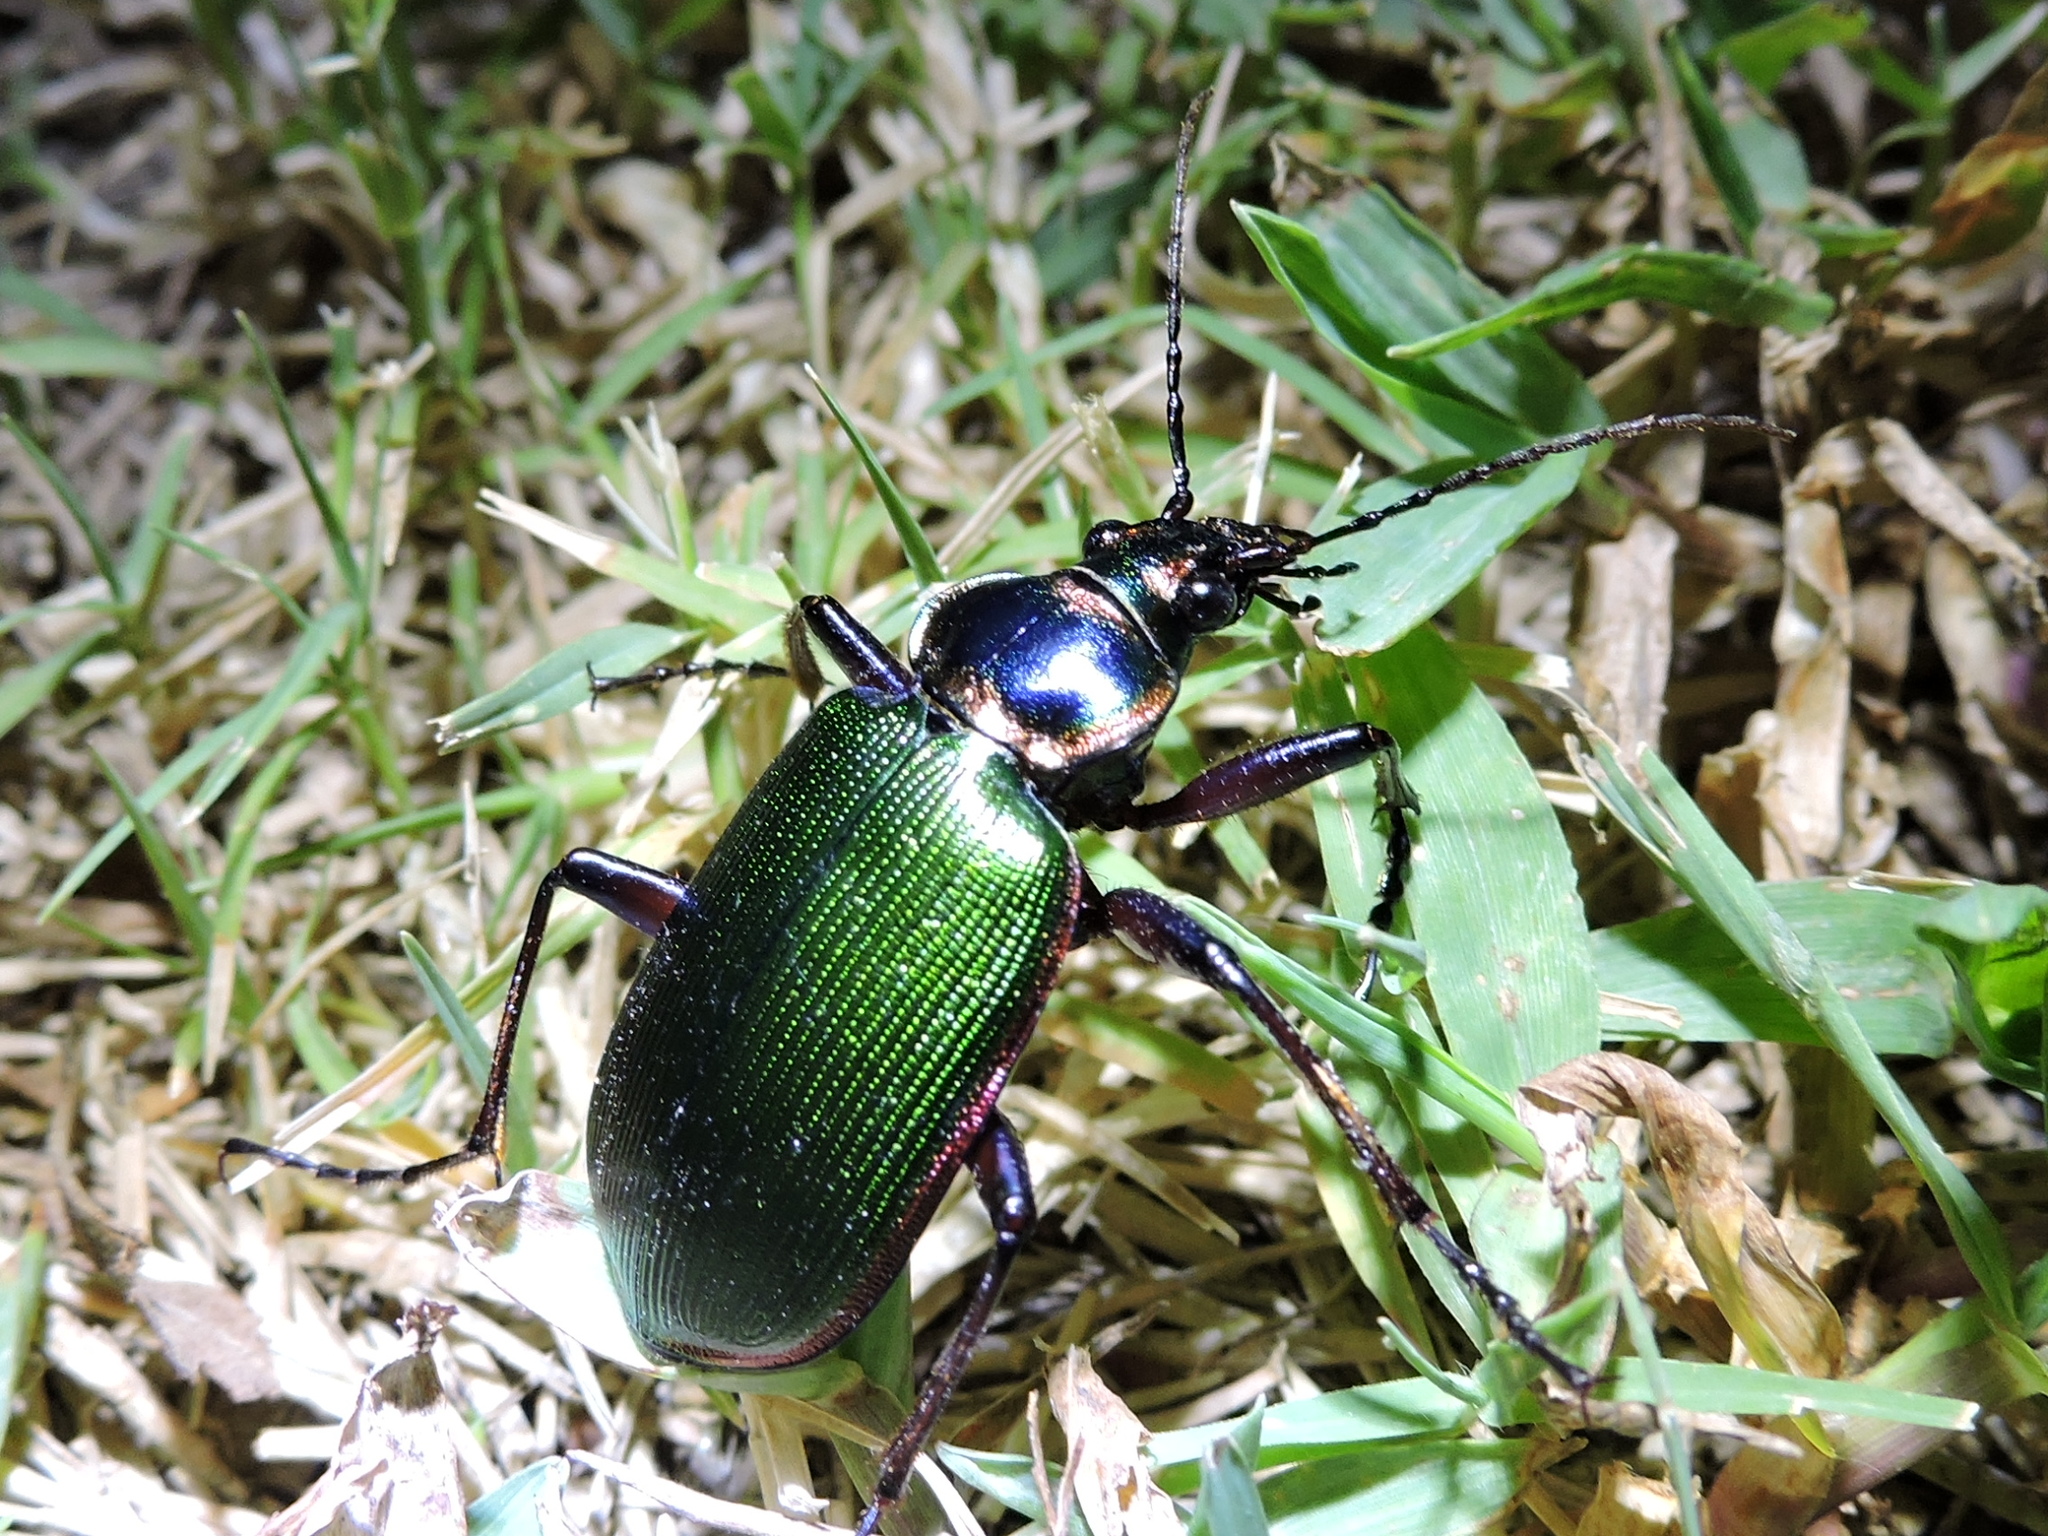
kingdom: Animalia
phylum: Arthropoda
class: Insecta
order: Coleoptera
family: Carabidae
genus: Calosoma
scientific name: Calosoma scrutator
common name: Fiery searcher beetle
